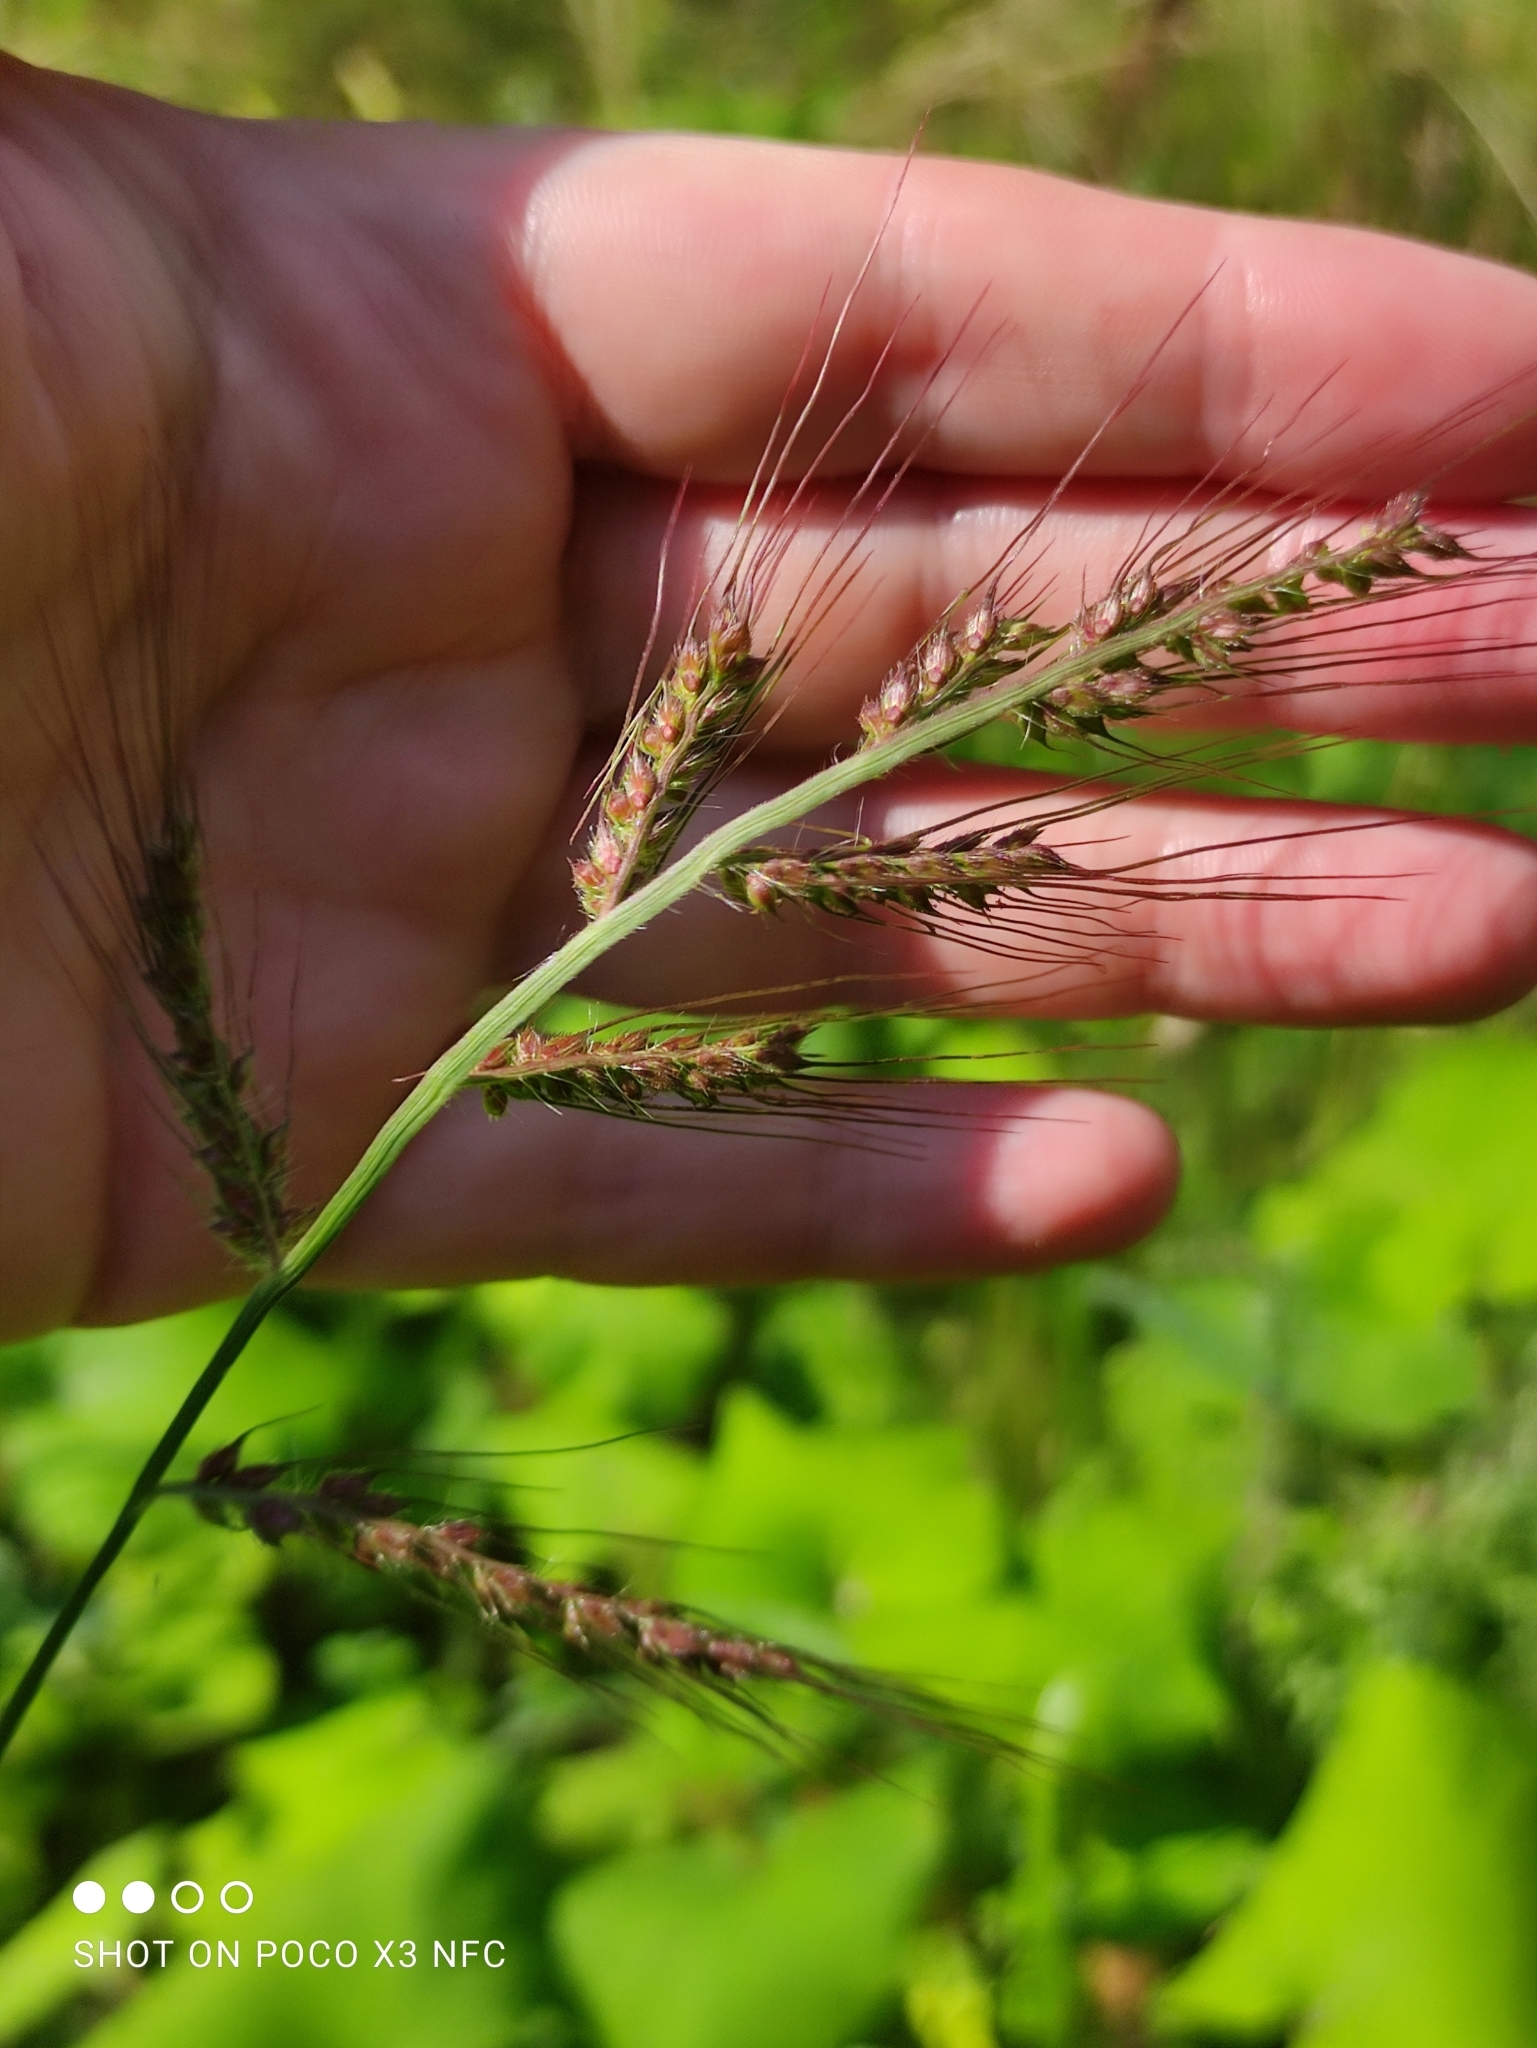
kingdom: Plantae
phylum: Tracheophyta
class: Liliopsida
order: Poales
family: Poaceae
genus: Echinochloa
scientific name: Echinochloa crus-galli
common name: Cockspur
